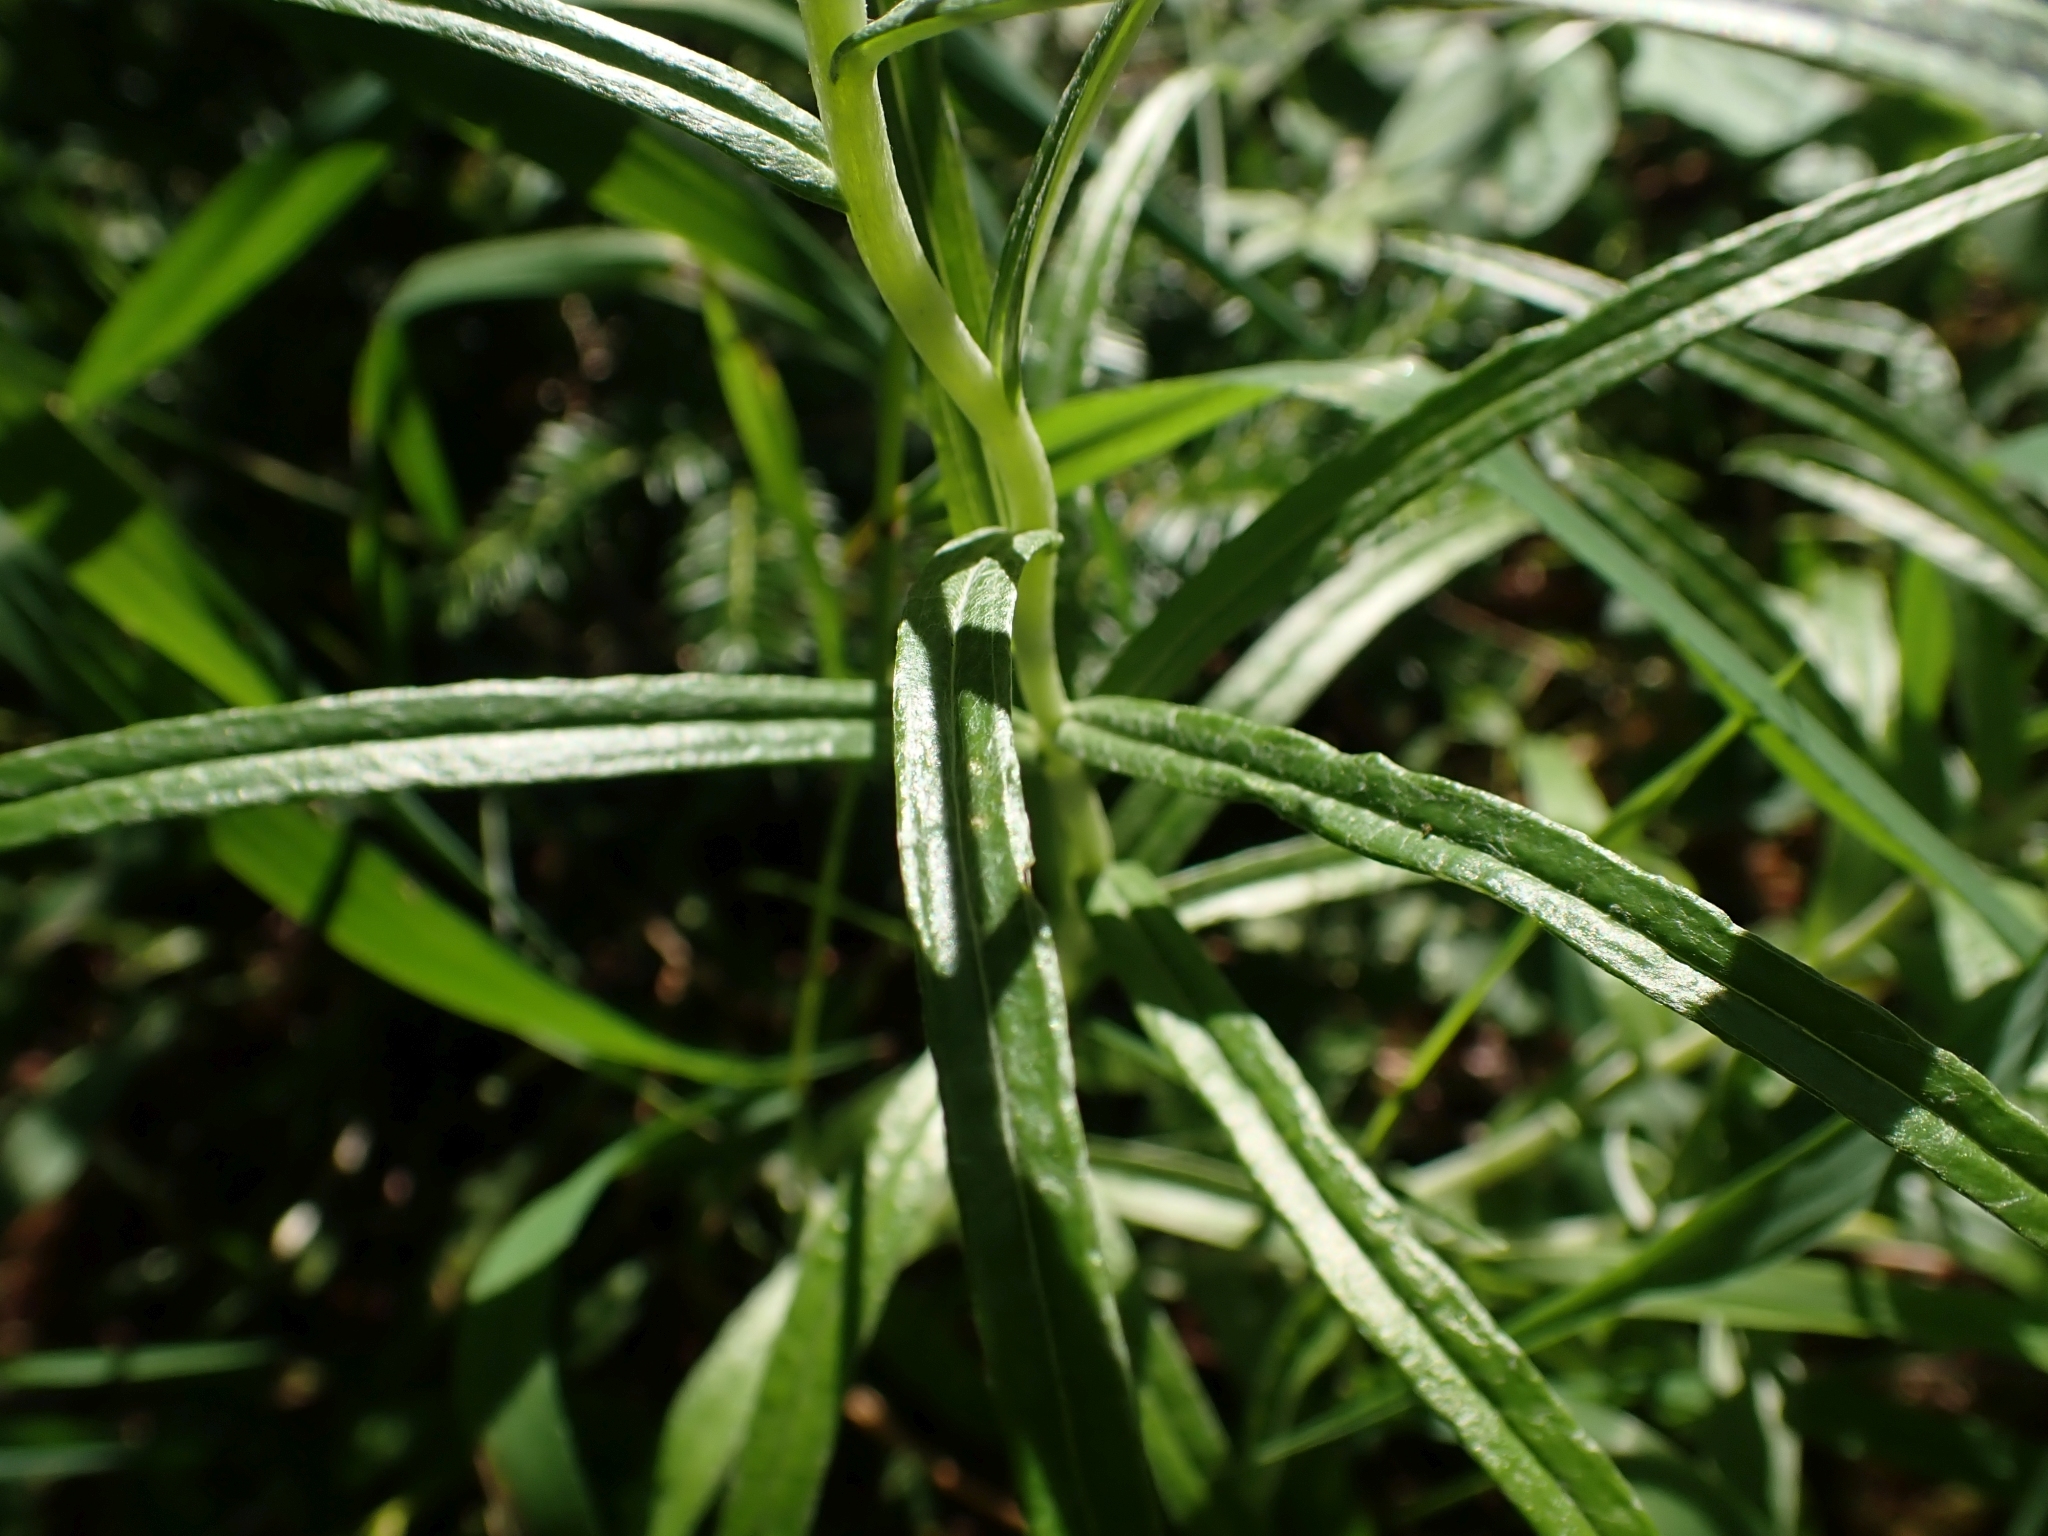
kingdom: Plantae
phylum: Tracheophyta
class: Magnoliopsida
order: Asterales
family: Asteraceae
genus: Anaphalis
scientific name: Anaphalis margaritacea
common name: Pearly everlasting
